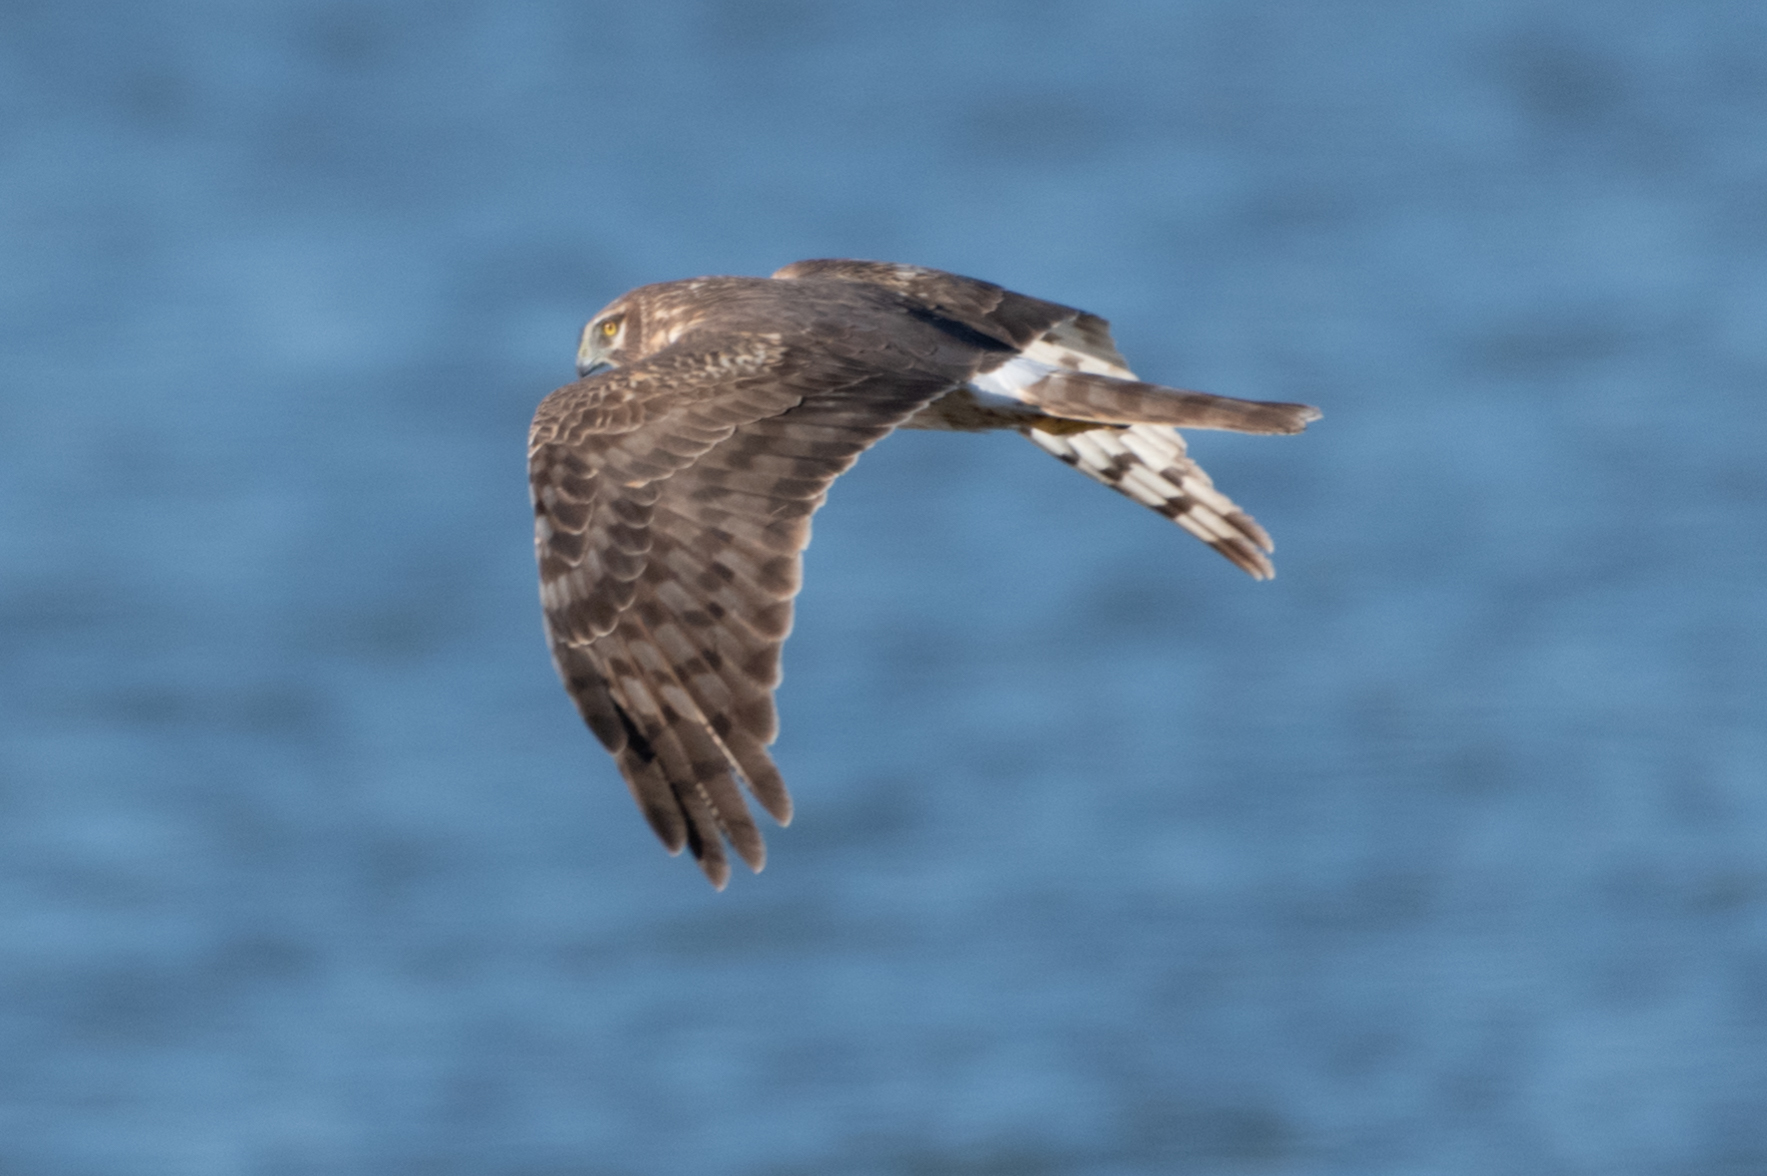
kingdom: Animalia
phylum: Chordata
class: Aves
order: Accipitriformes
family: Accipitridae
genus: Circus
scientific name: Circus cyaneus
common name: Hen harrier
